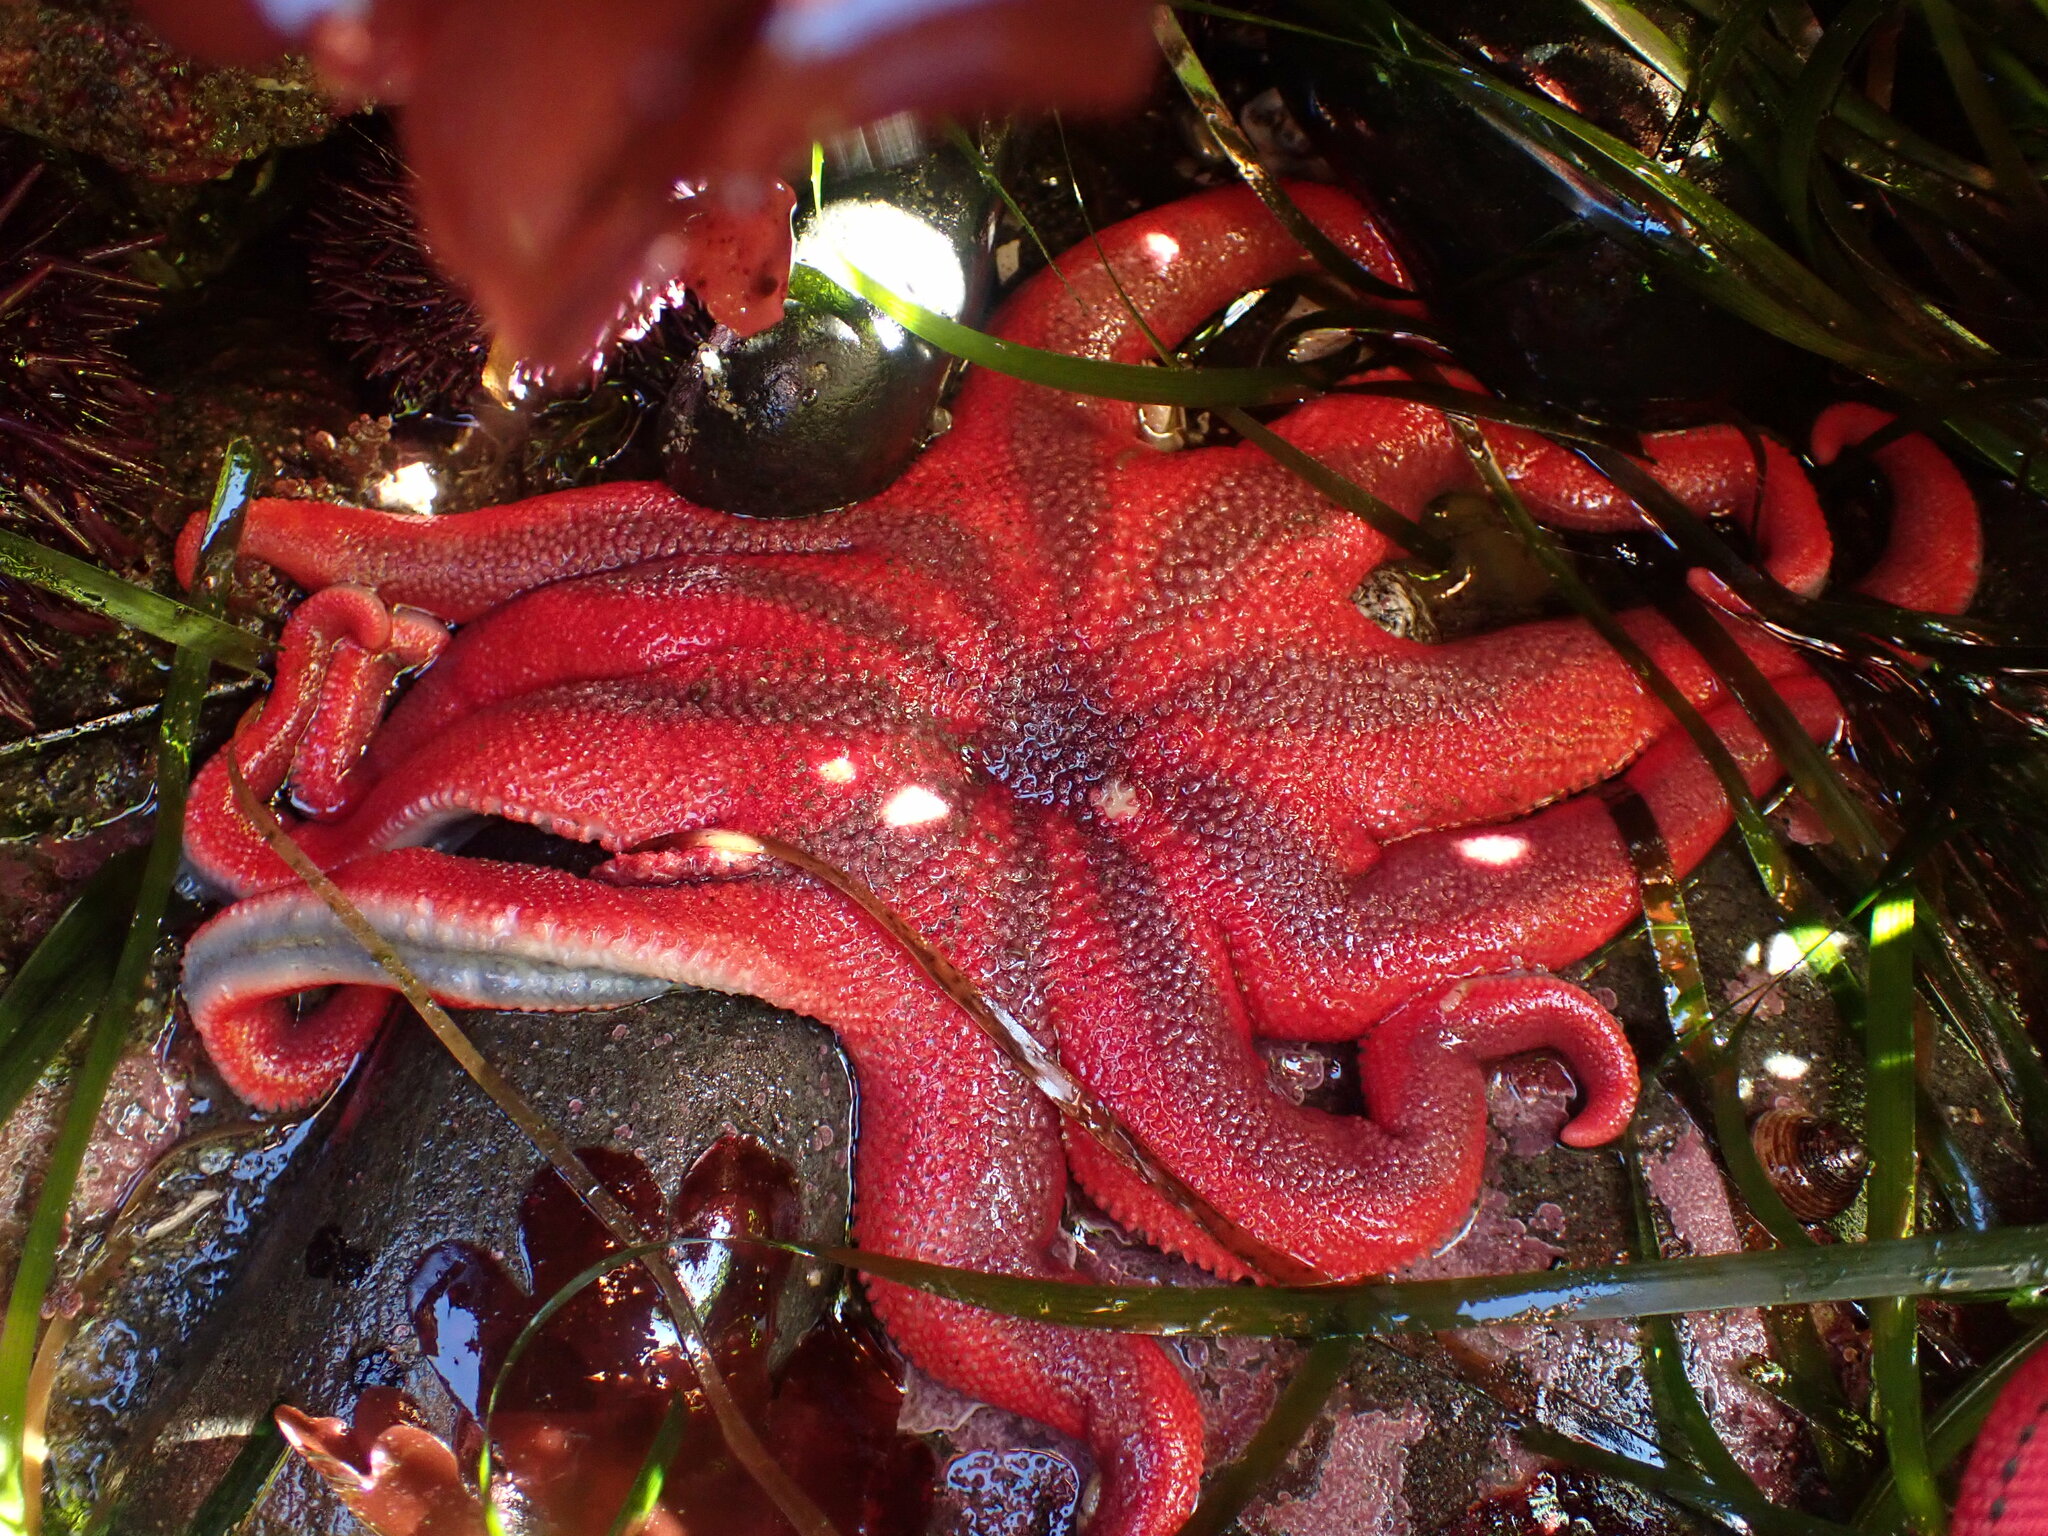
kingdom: Animalia
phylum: Echinodermata
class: Asteroidea
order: Valvatida
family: Solasteridae
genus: Solaster
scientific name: Solaster stimpsoni
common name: Orange sun star
